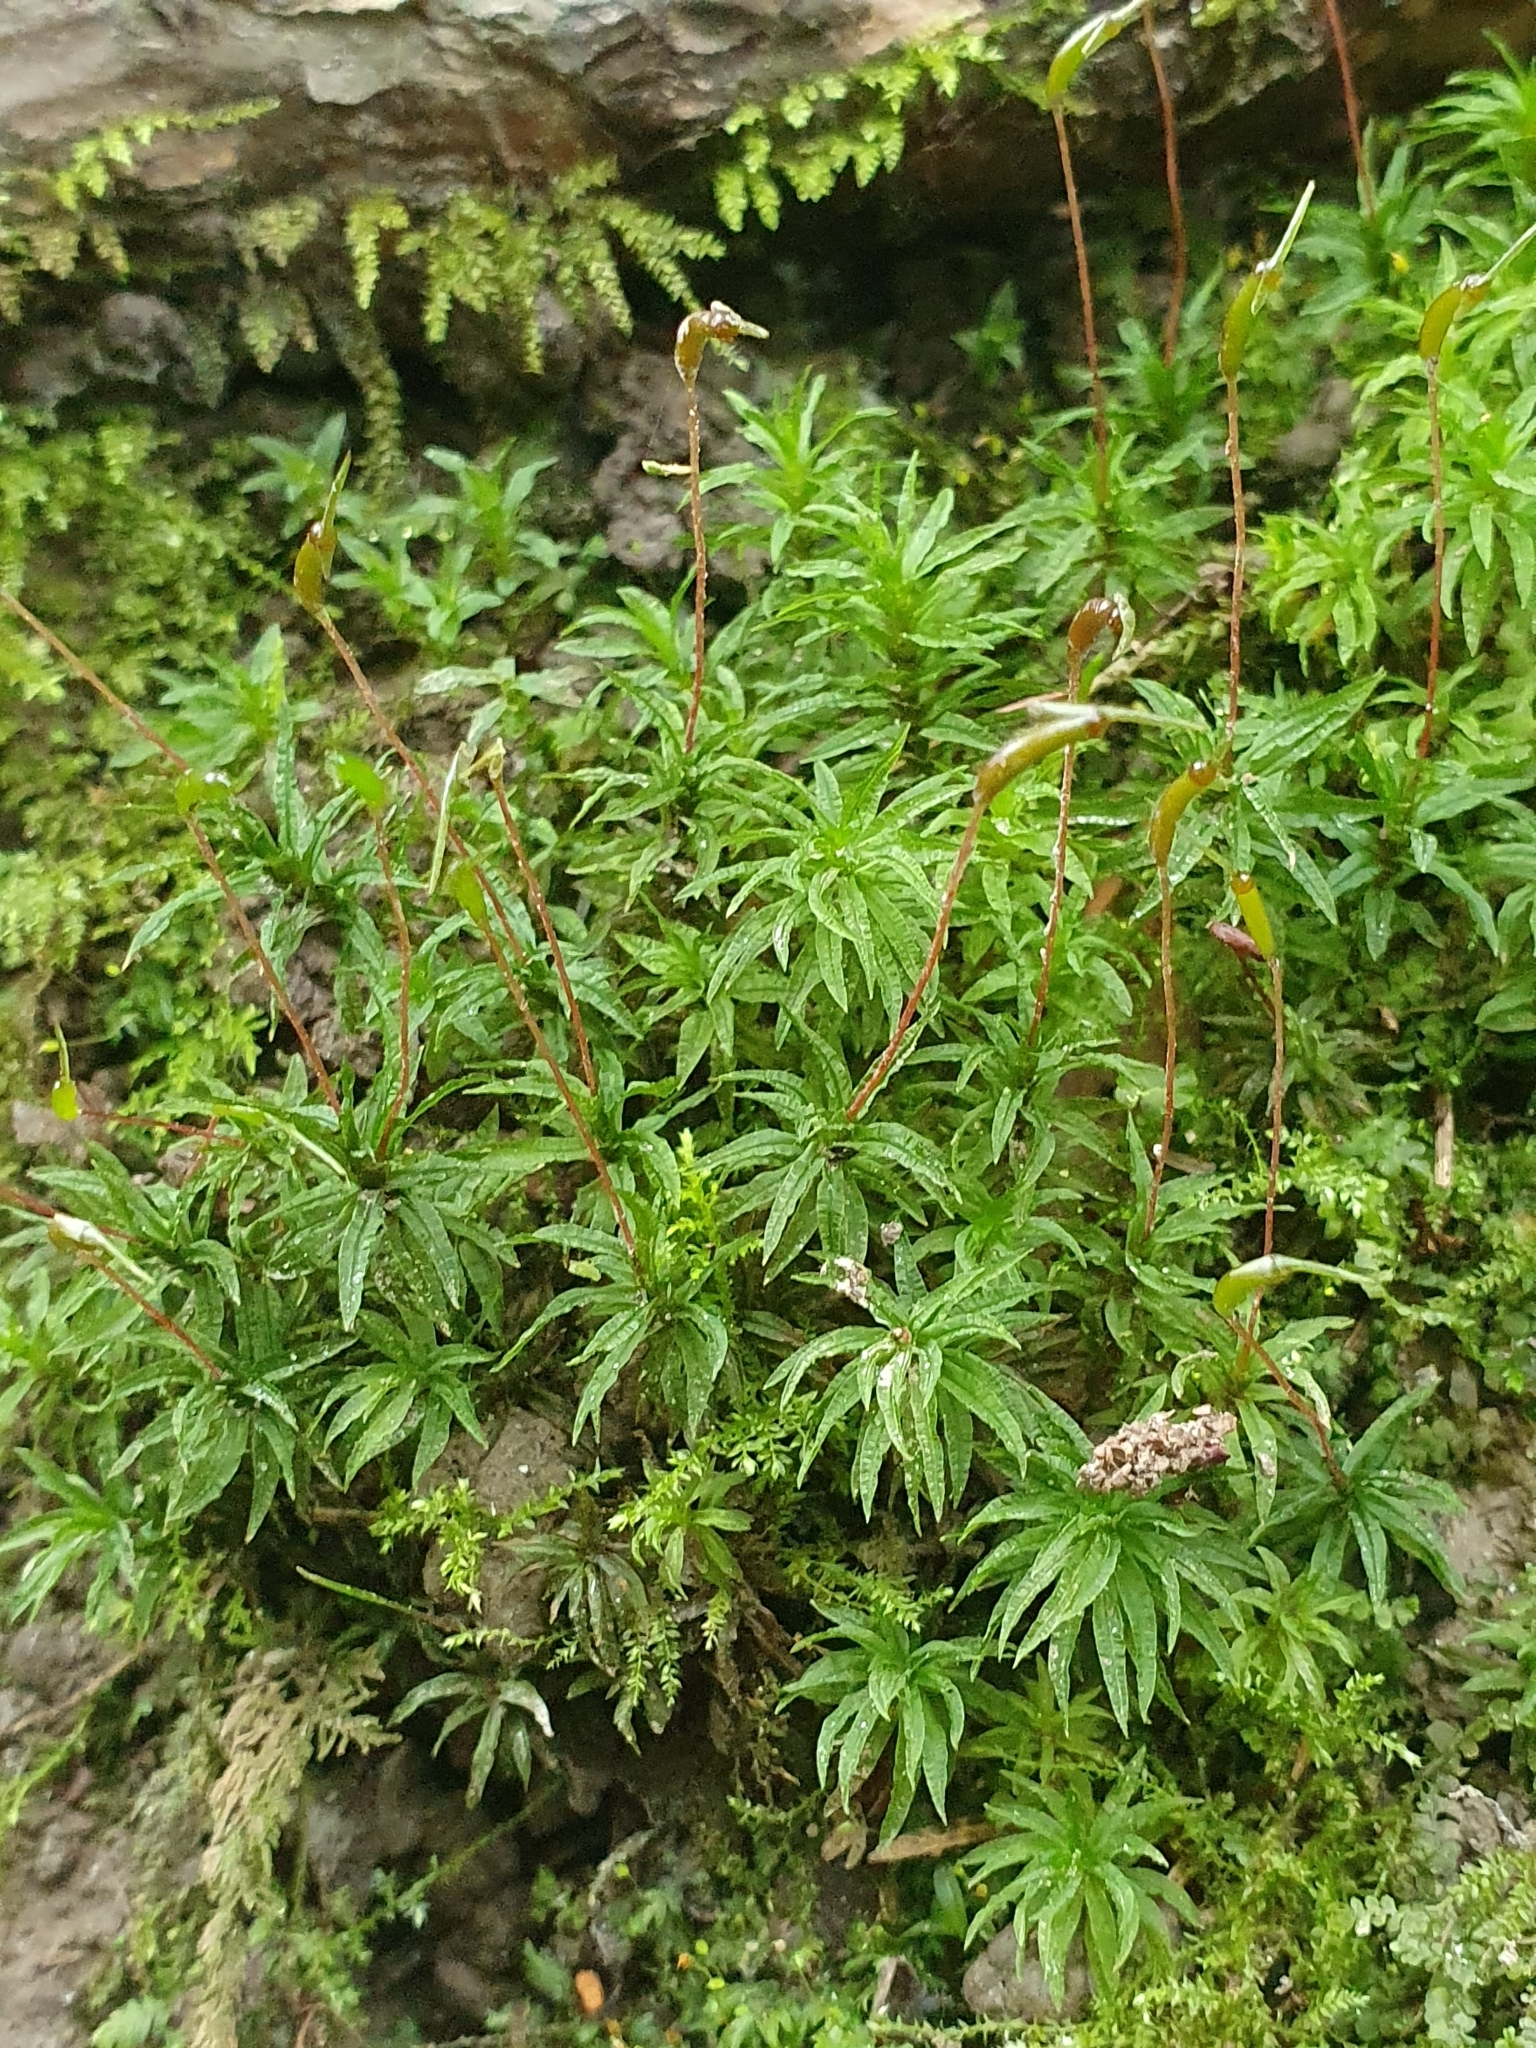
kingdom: Plantae
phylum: Bryophyta
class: Polytrichopsida
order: Polytrichales
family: Polytrichaceae
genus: Atrichum
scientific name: Atrichum undulatum
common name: Common smoothcap
